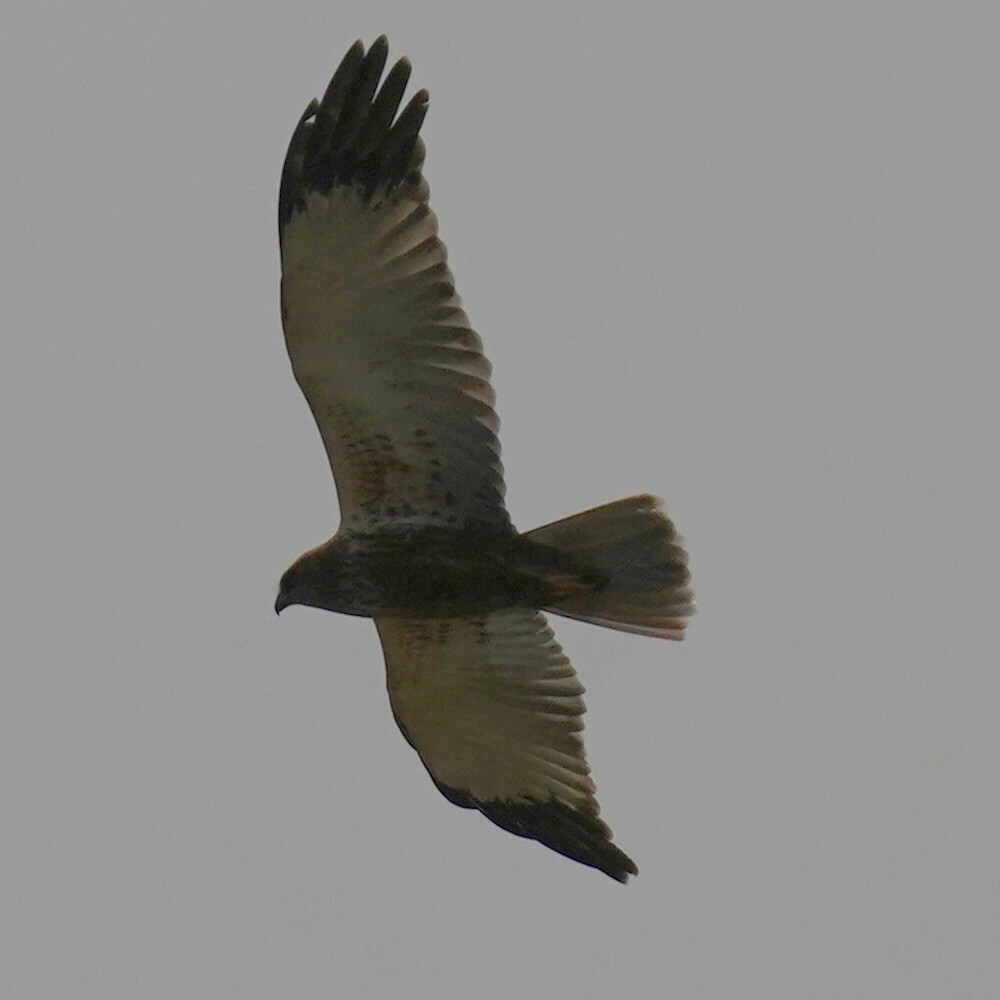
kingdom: Animalia
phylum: Chordata
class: Aves
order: Accipitriformes
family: Accipitridae
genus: Circus
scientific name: Circus aeruginosus
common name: Western marsh harrier
